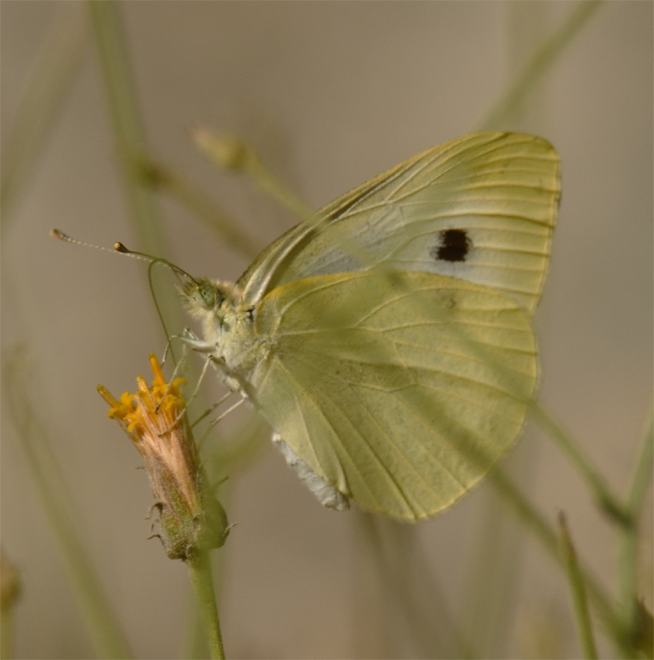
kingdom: Animalia
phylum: Arthropoda
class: Insecta
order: Lepidoptera
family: Pieridae
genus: Pieris
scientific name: Pieris rapae
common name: Small white
